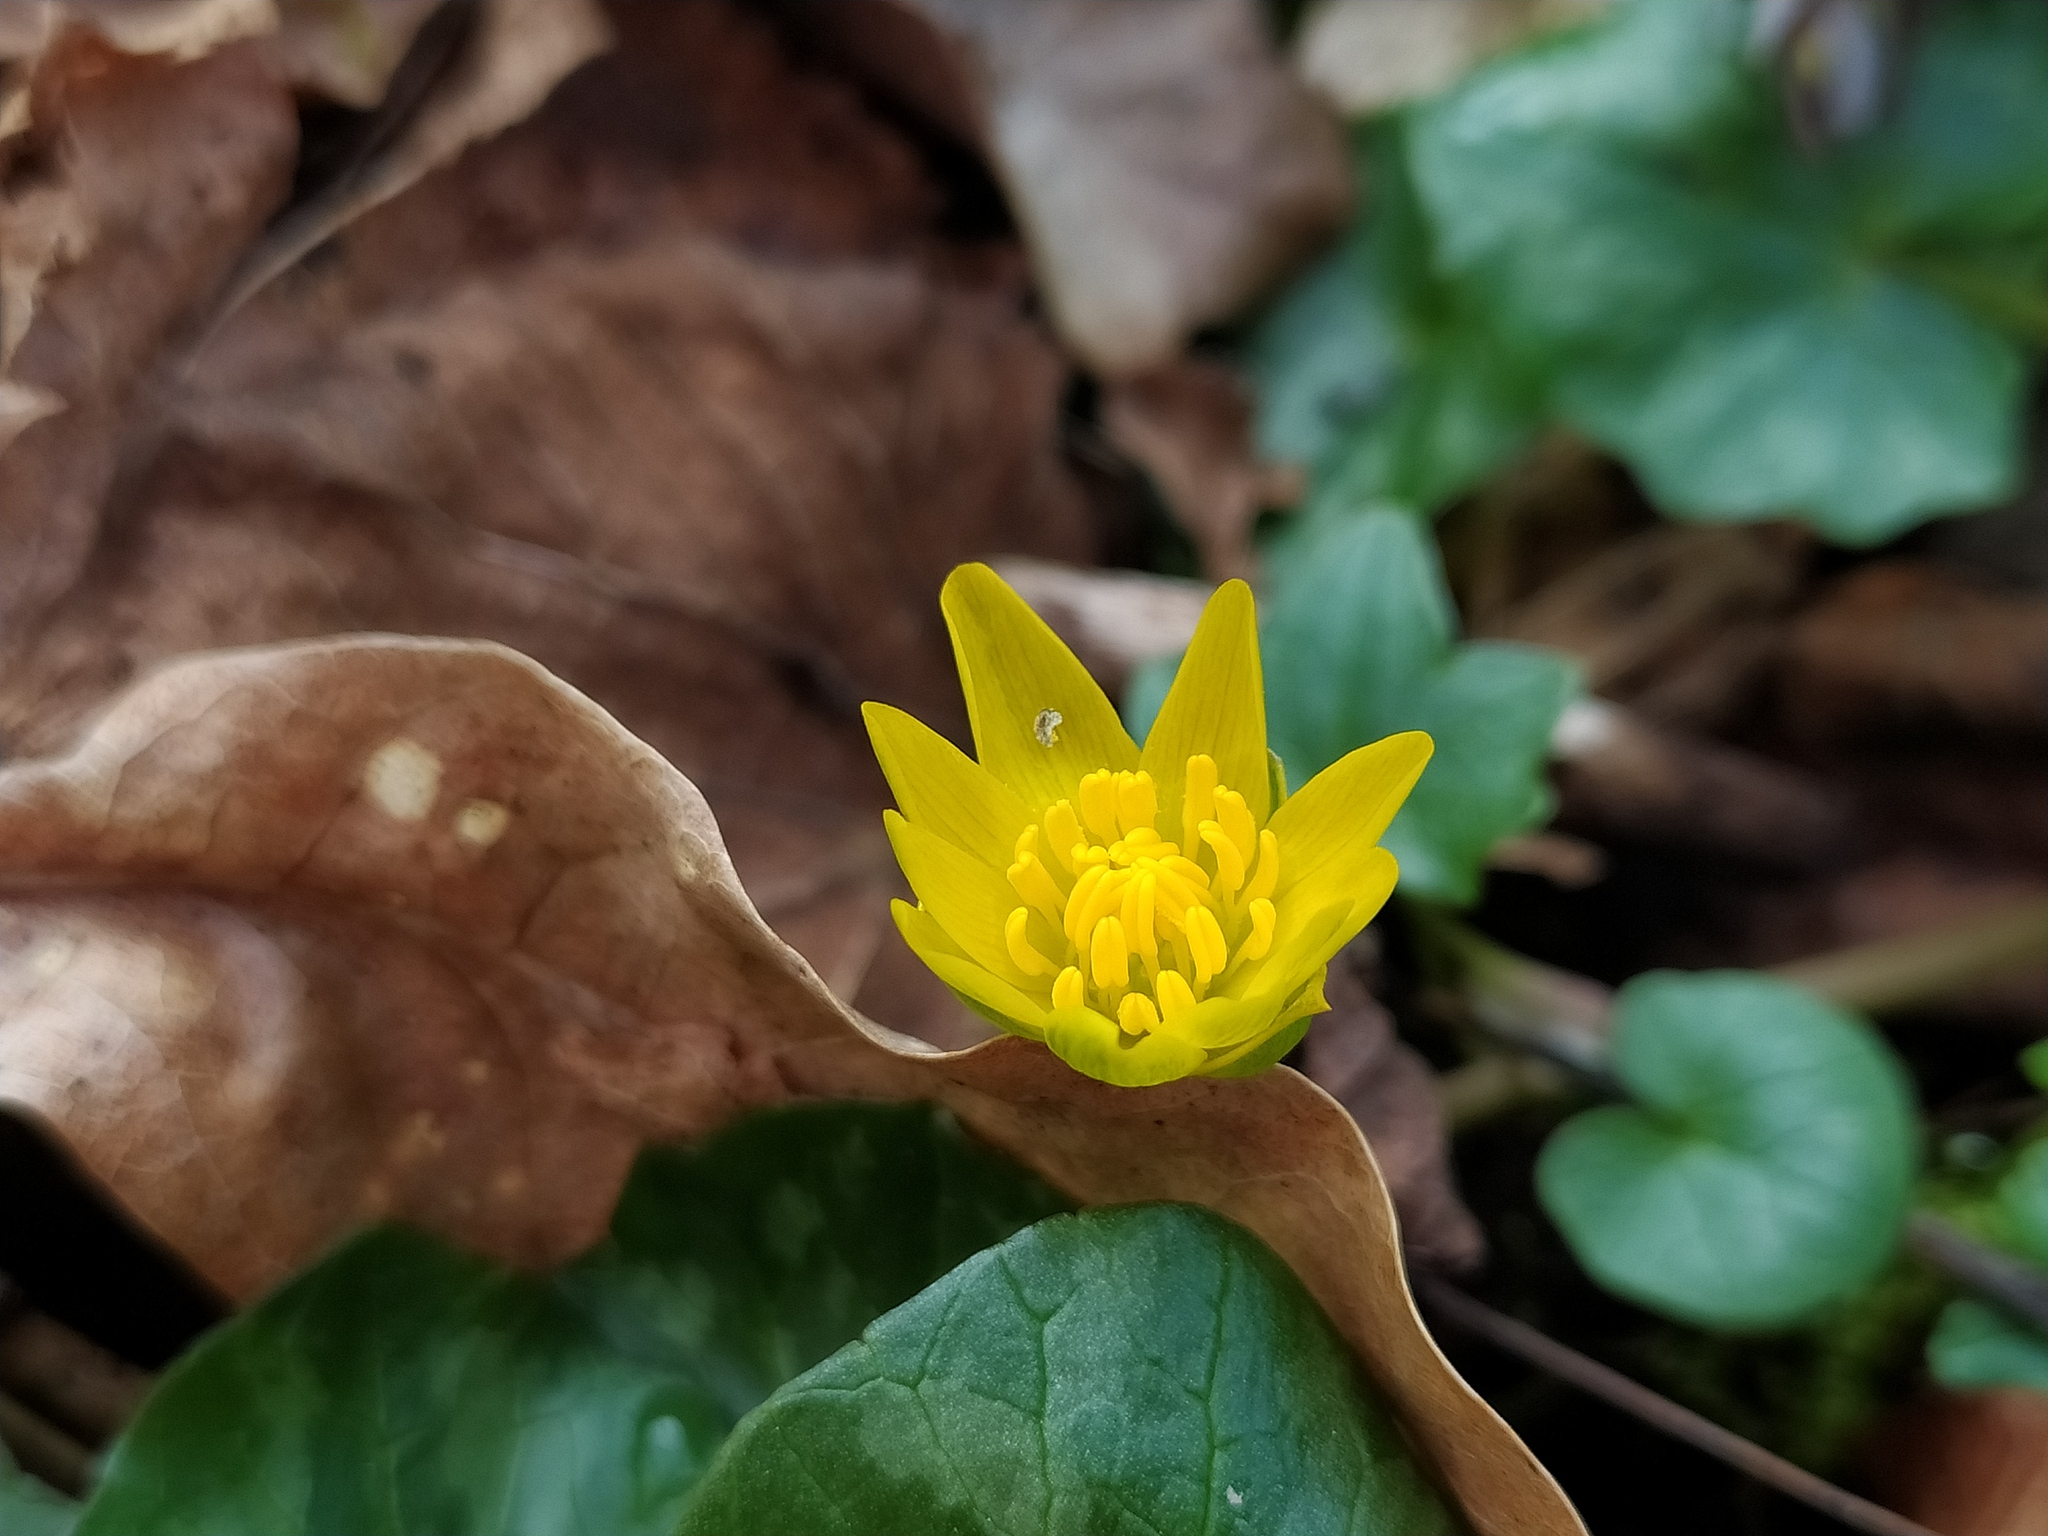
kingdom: Plantae
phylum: Tracheophyta
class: Magnoliopsida
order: Ranunculales
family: Ranunculaceae
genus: Ficaria
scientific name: Ficaria verna
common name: Lesser celandine
